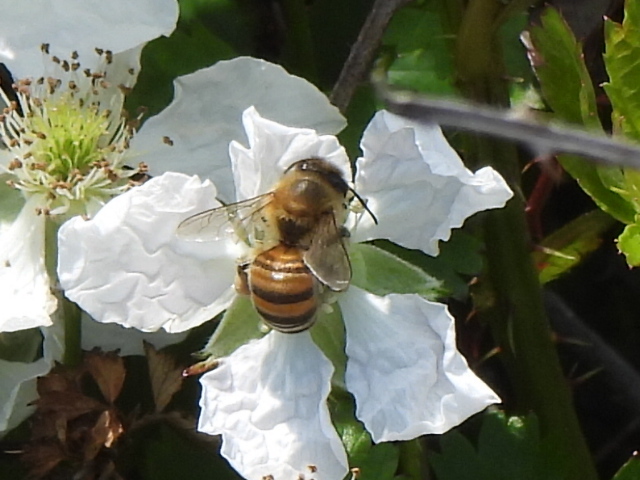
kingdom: Animalia
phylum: Arthropoda
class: Insecta
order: Hymenoptera
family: Apidae
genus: Apis
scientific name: Apis mellifera
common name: Honey bee
